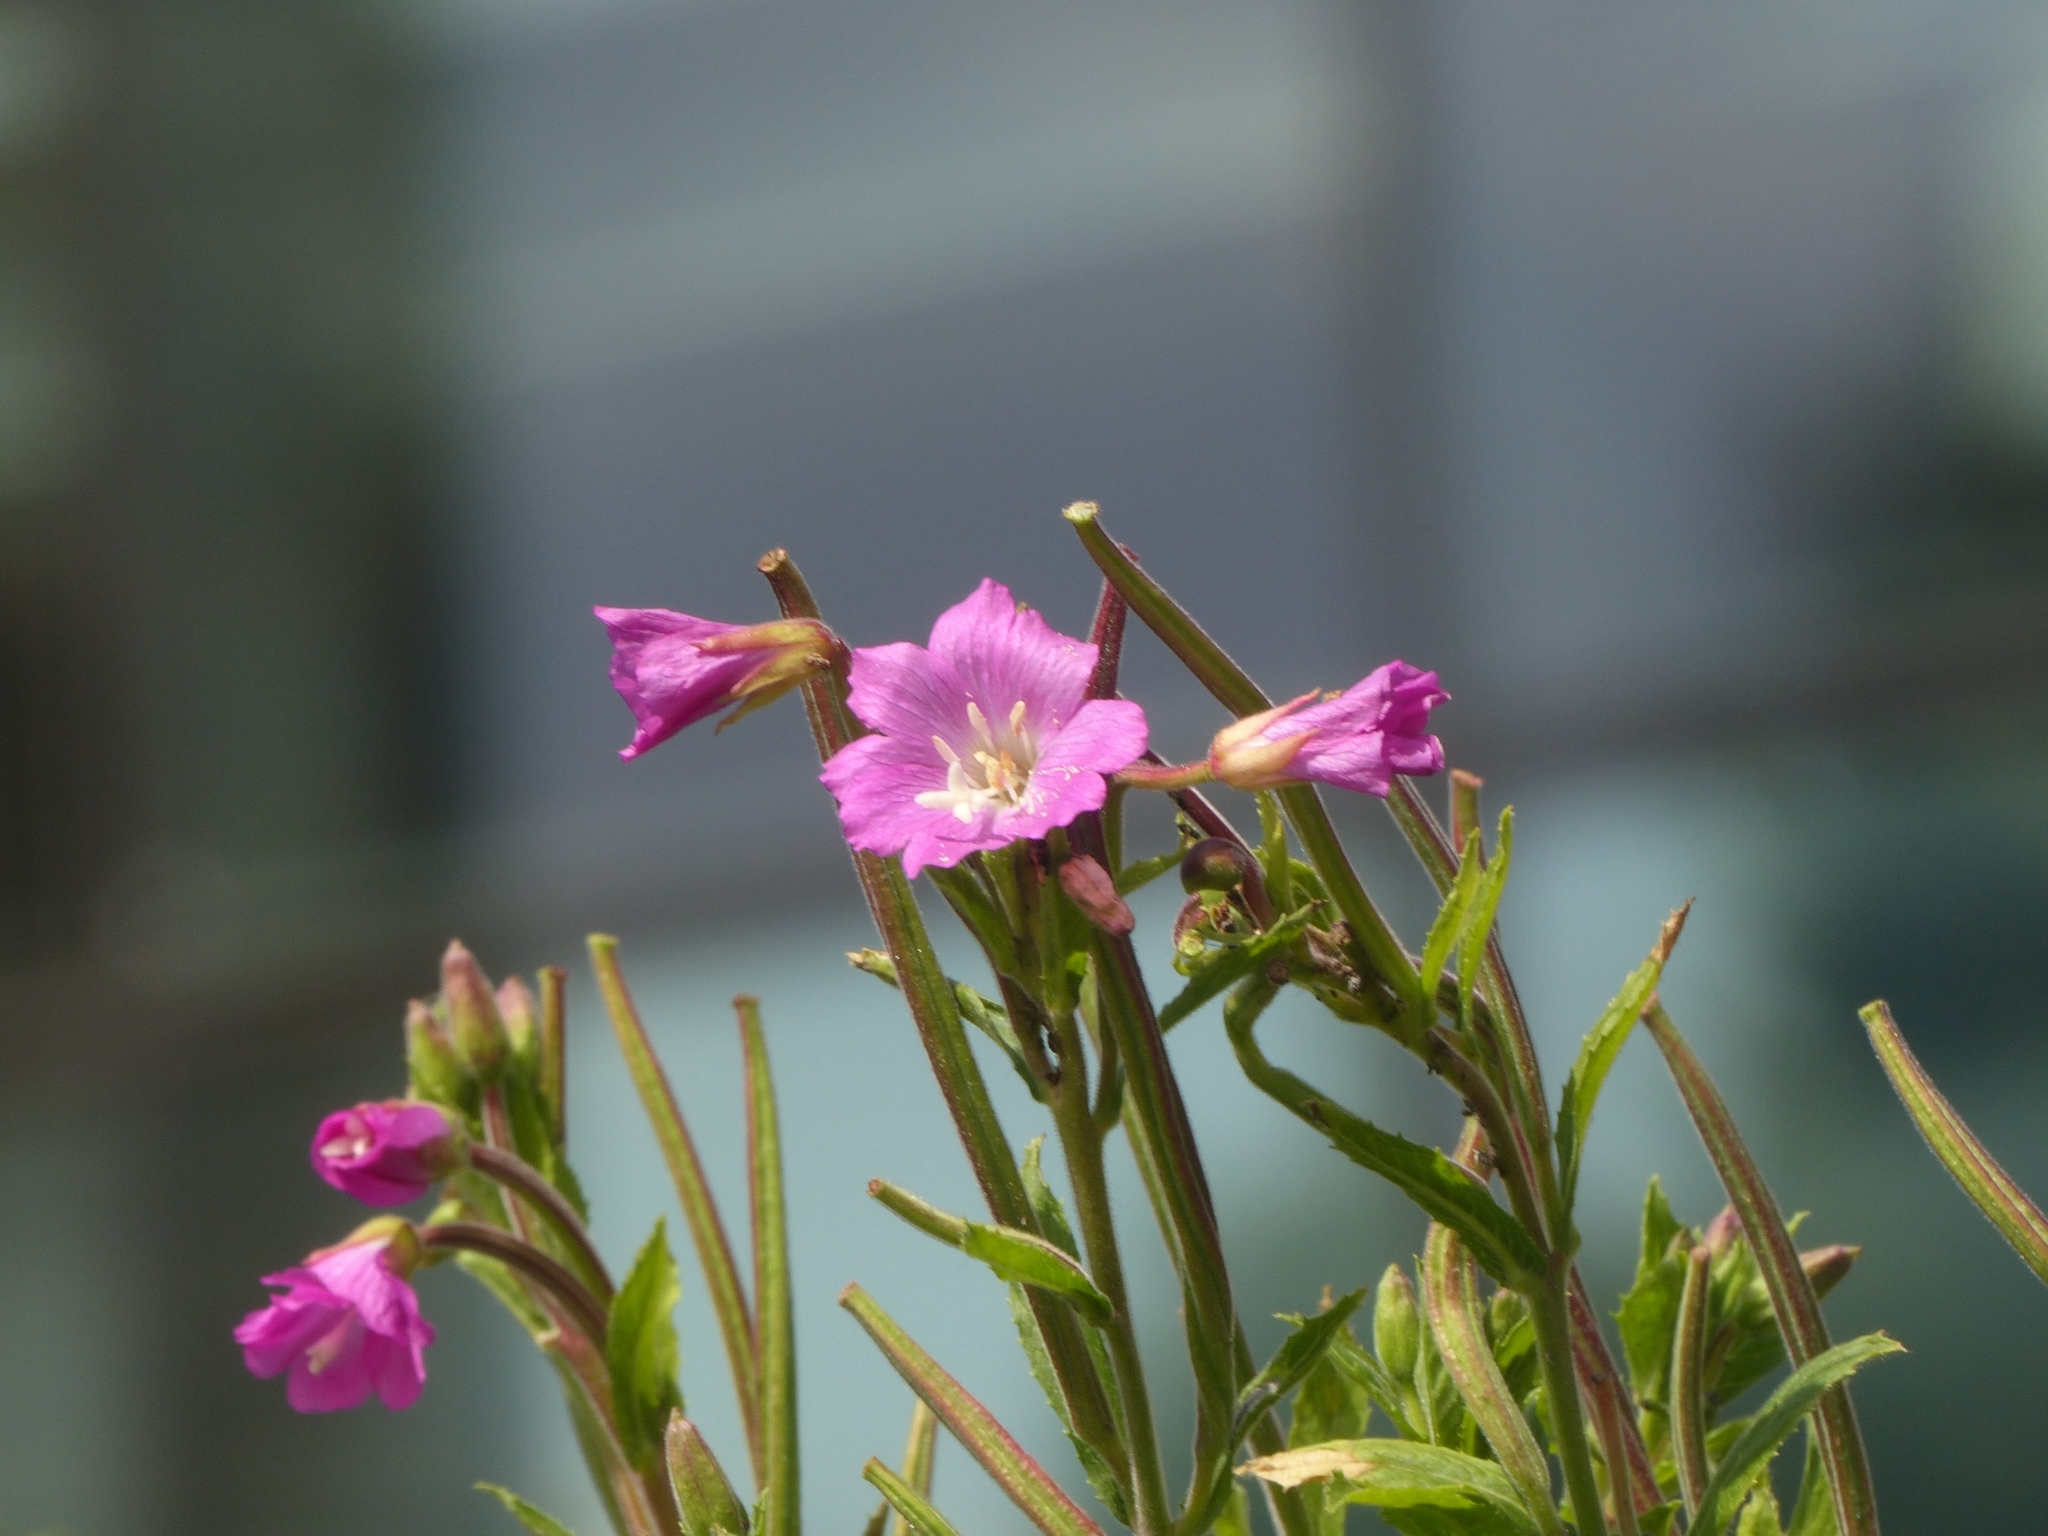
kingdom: Plantae
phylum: Tracheophyta
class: Magnoliopsida
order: Myrtales
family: Onagraceae
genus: Epilobium
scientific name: Epilobium hirsutum
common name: Great willowherb
